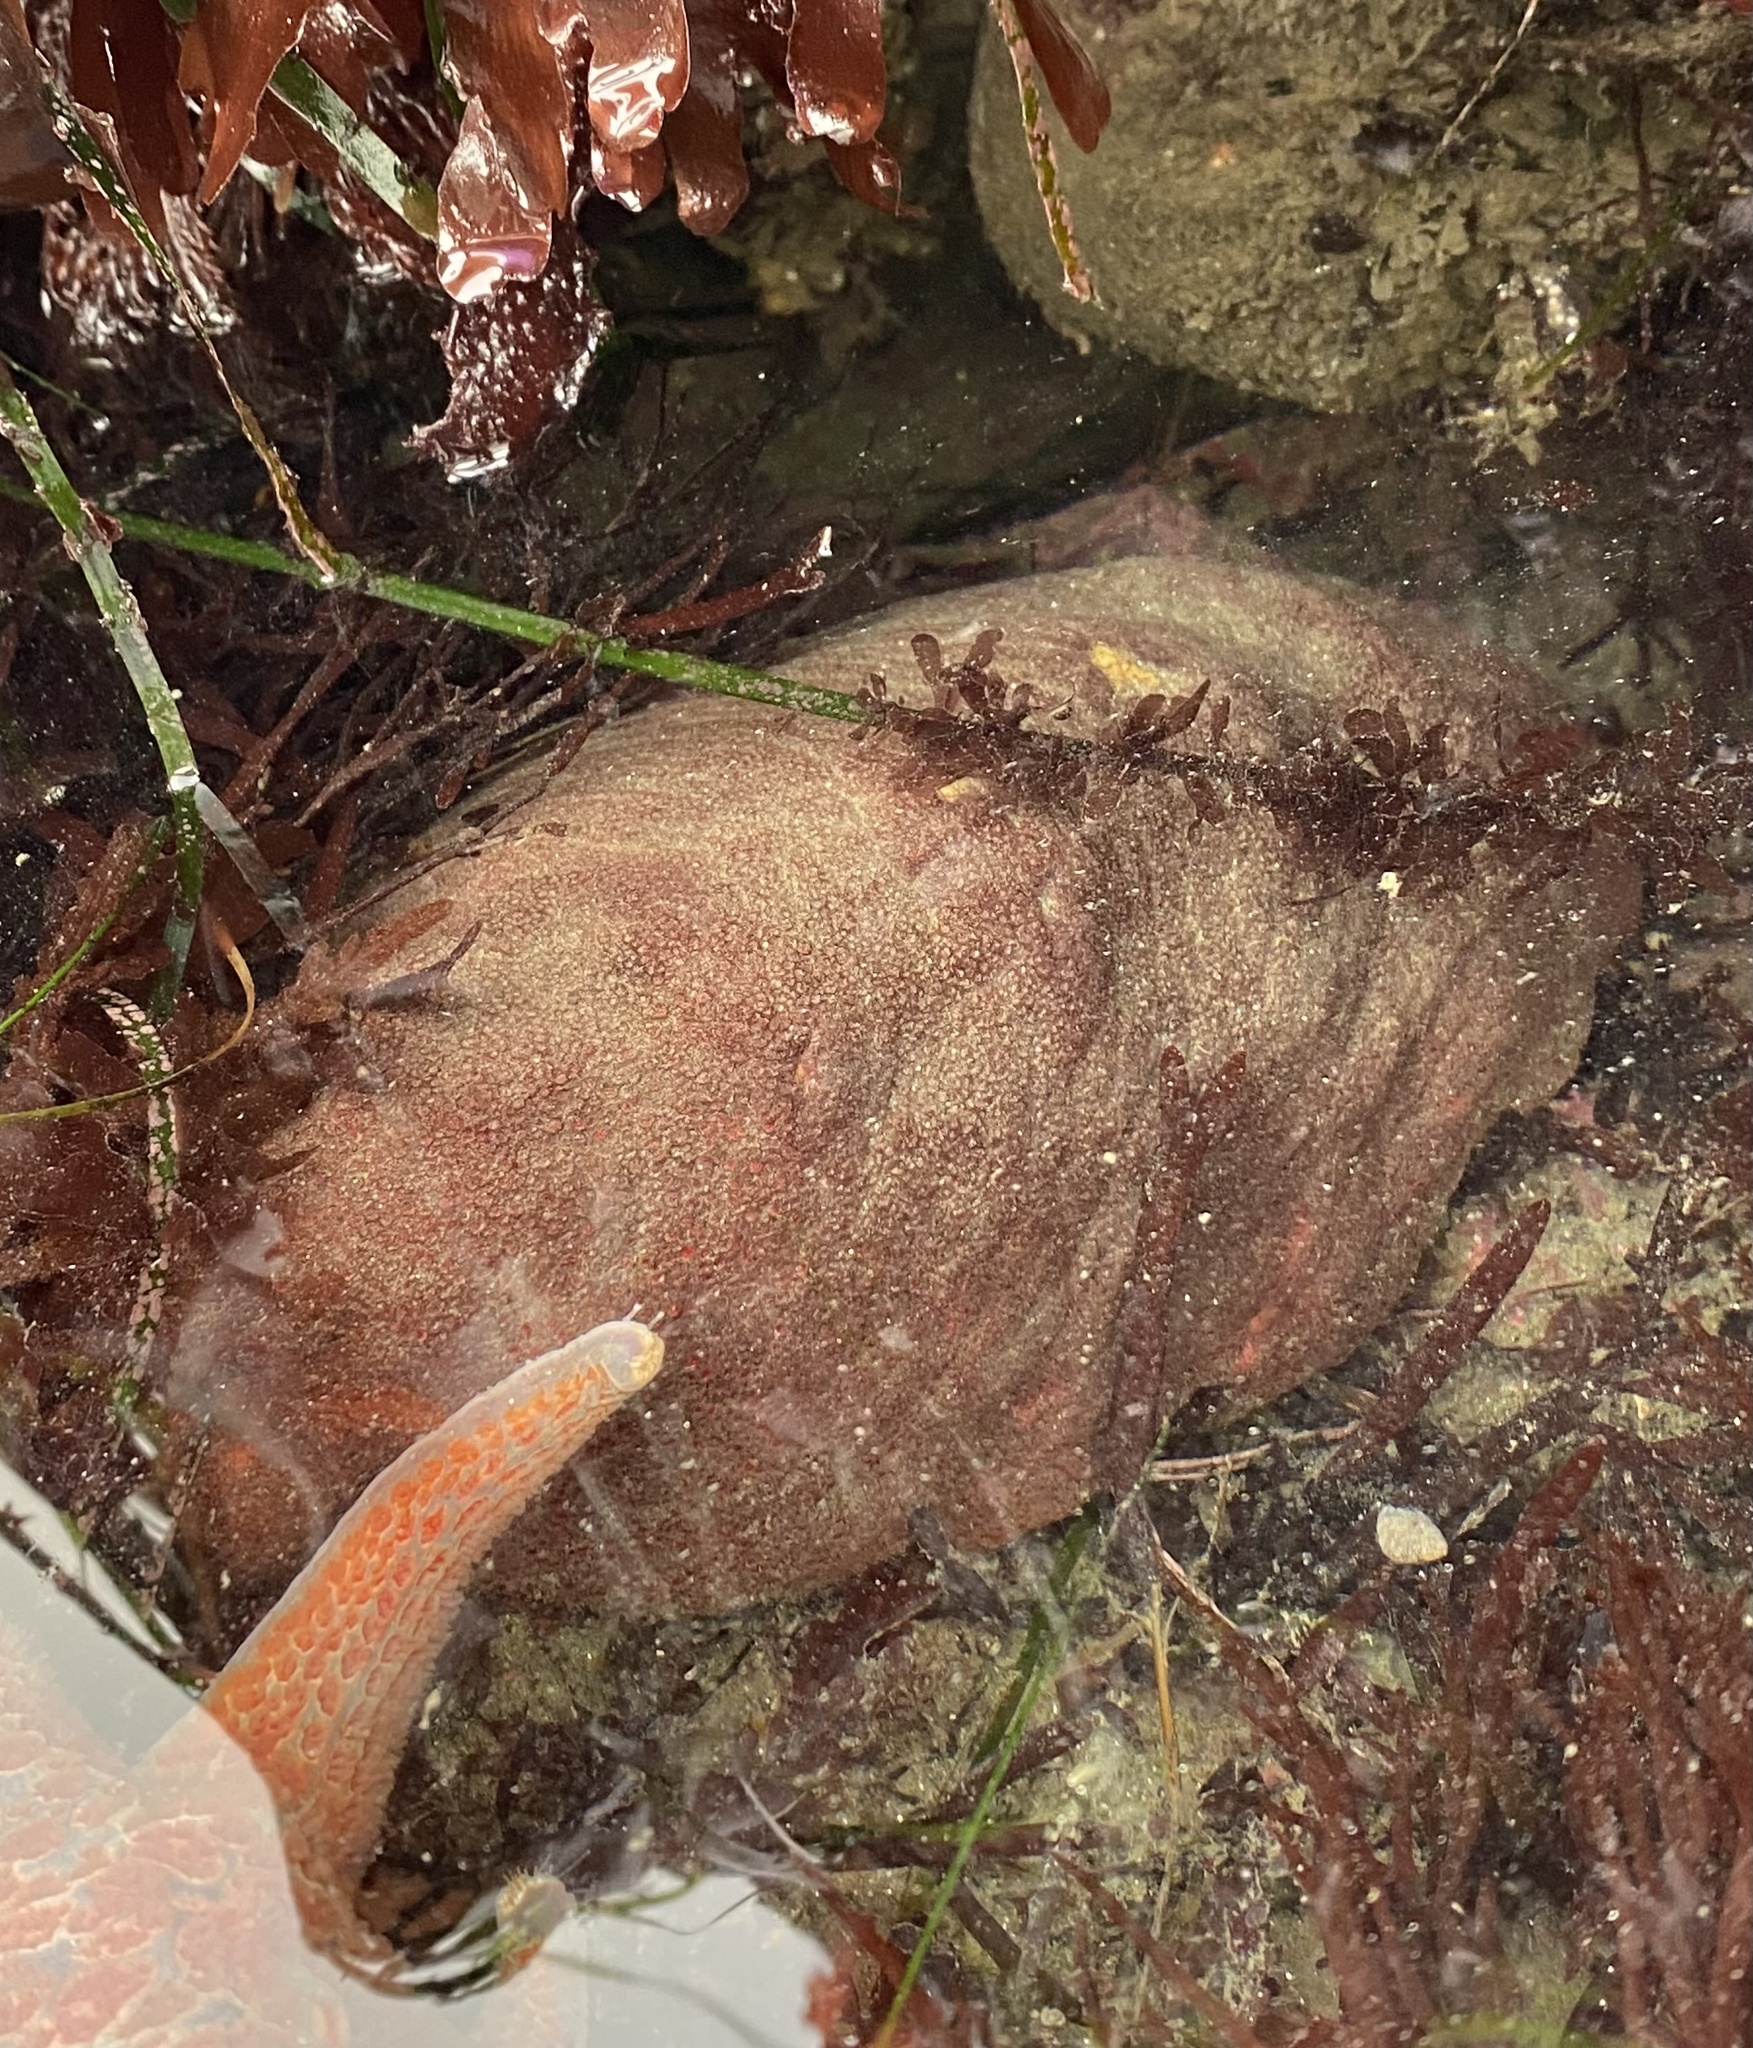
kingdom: Animalia
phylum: Mollusca
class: Polyplacophora
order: Chitonida
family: Acanthochitonidae
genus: Cryptochiton
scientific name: Cryptochiton stelleri
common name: Giant pacific chiton
